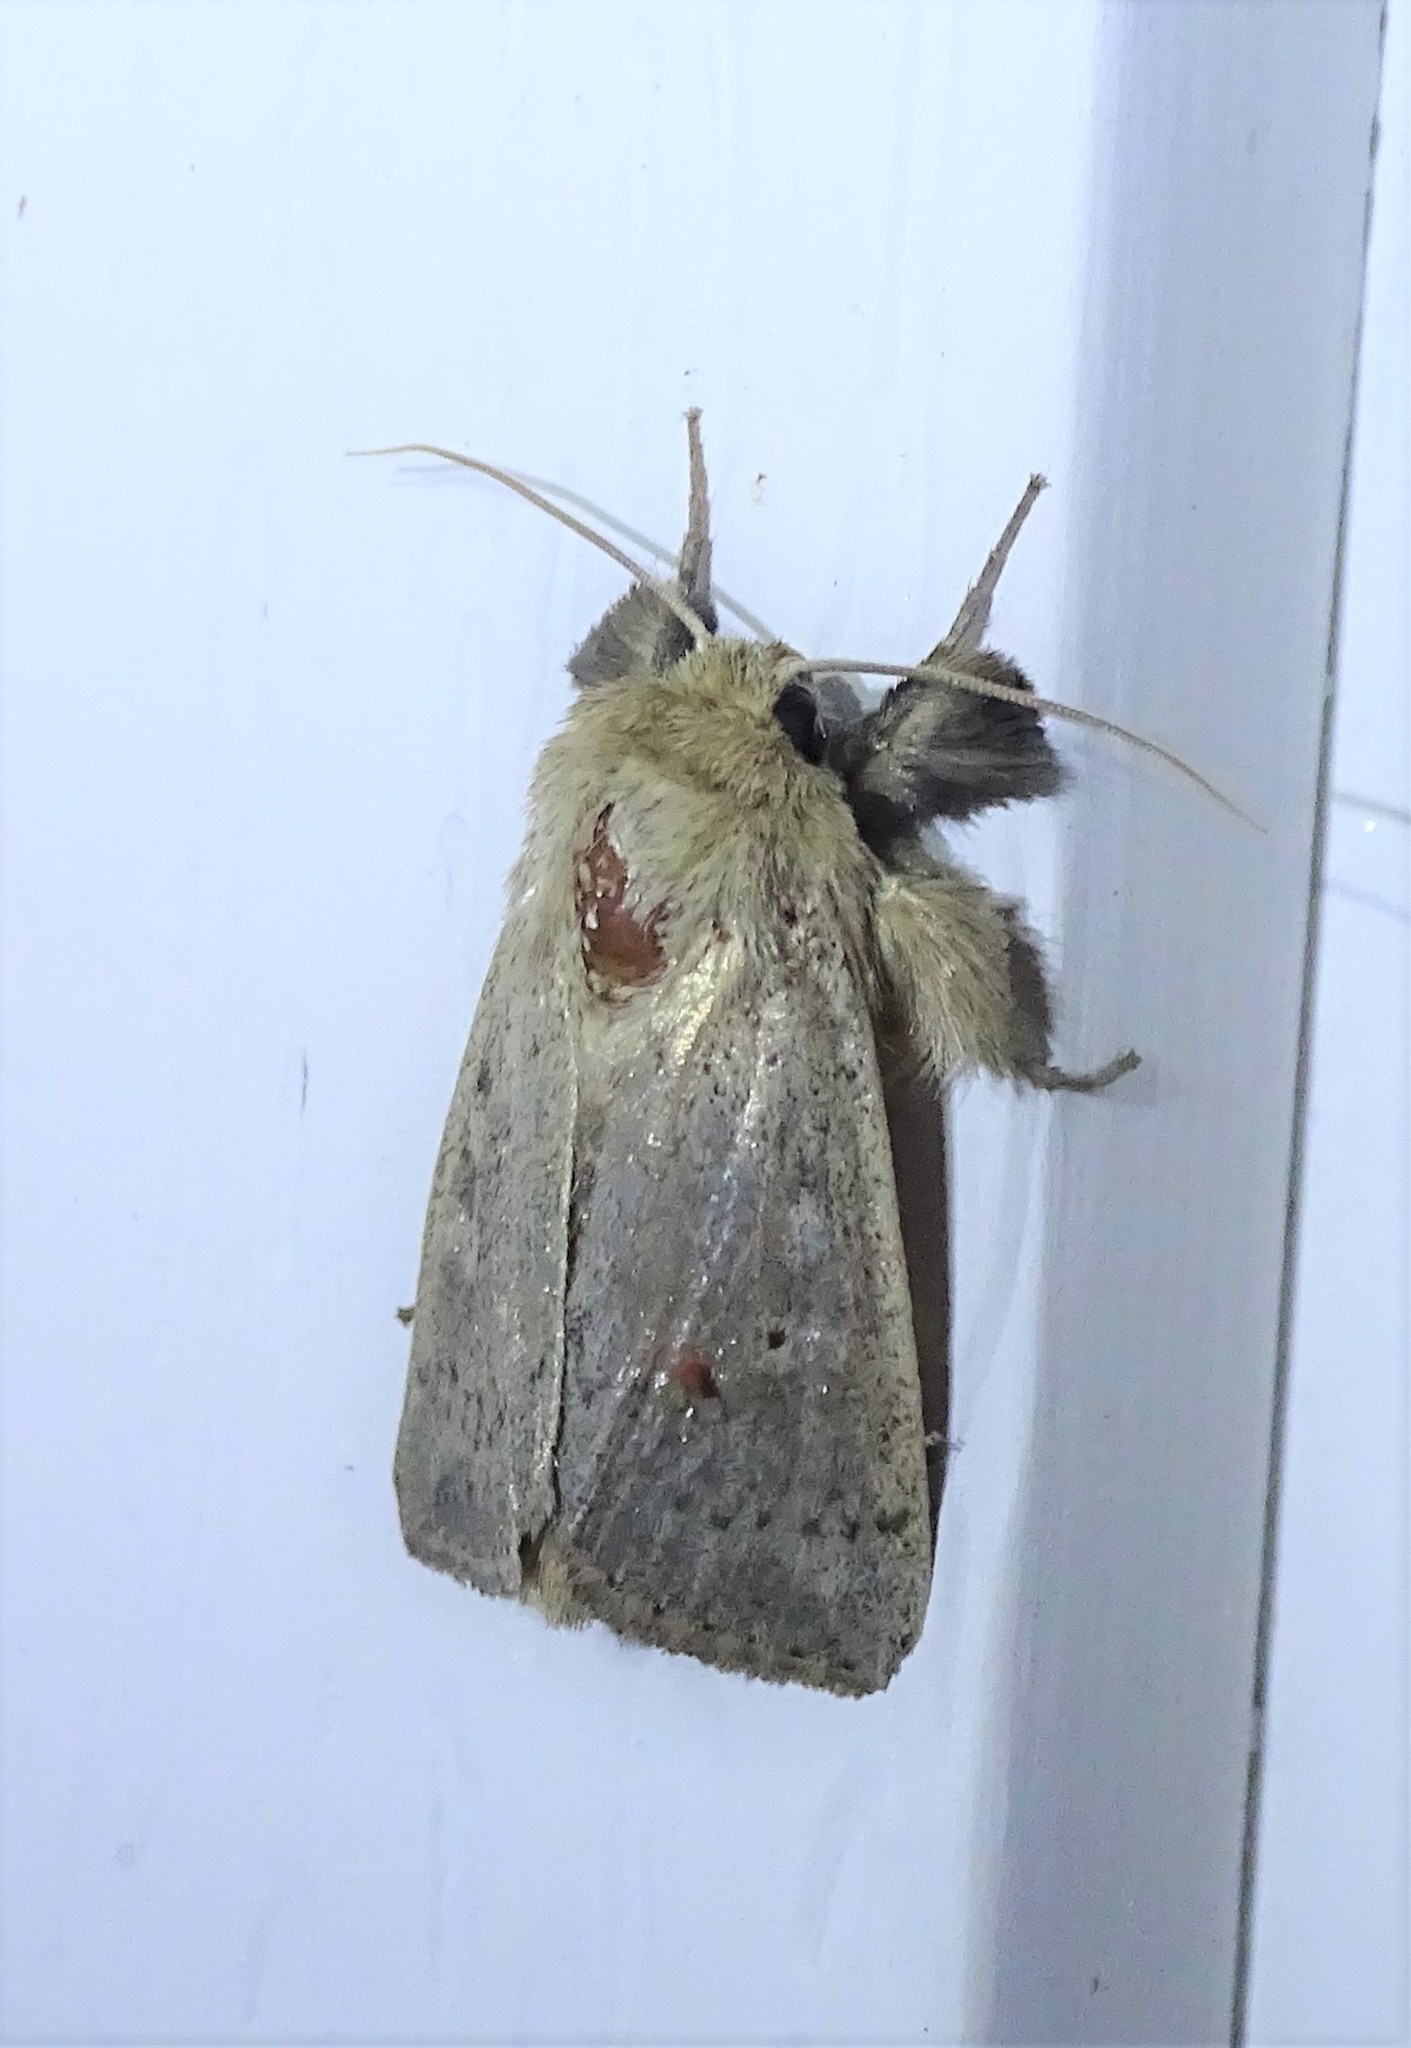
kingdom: Animalia
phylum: Arthropoda
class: Insecta
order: Lepidoptera
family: Noctuidae
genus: Leucania
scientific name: Leucania ursula
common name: Ursula wainscot
